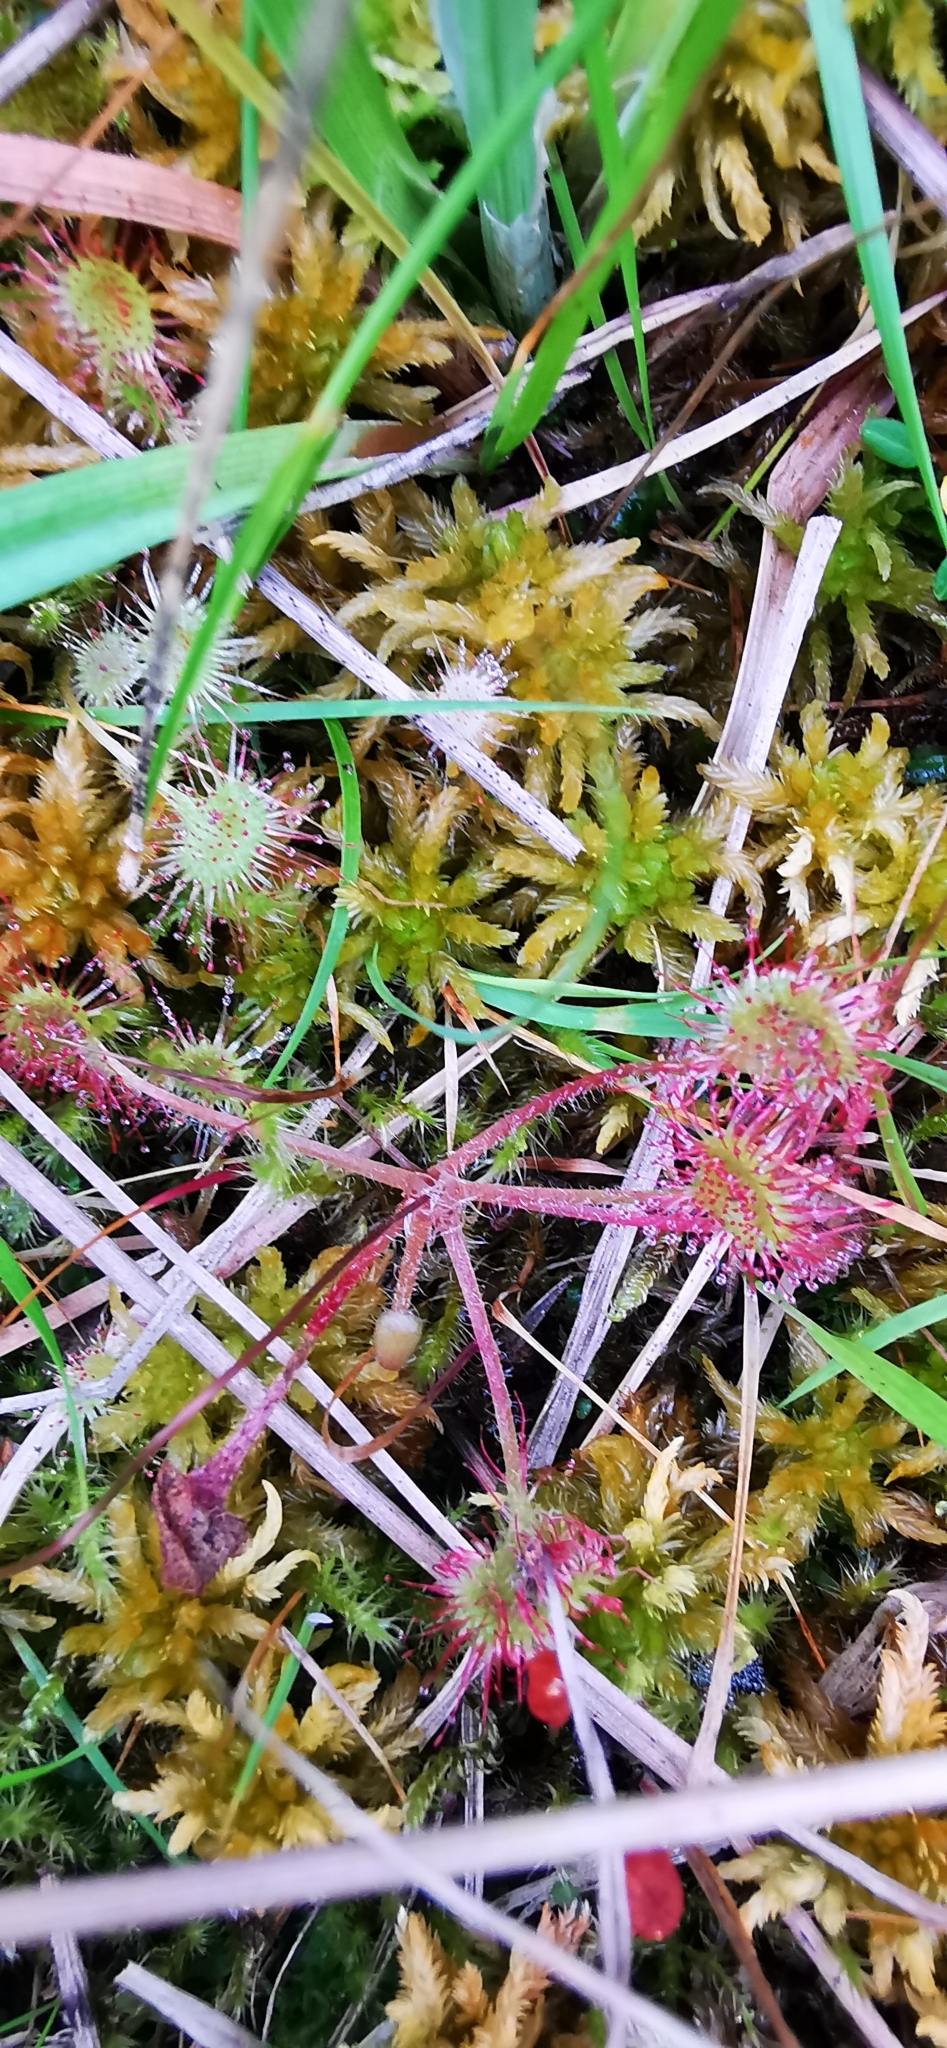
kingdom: Plantae
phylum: Tracheophyta
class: Magnoliopsida
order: Caryophyllales
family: Droseraceae
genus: Drosera
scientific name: Drosera rotundifolia
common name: Round-leaved sundew
